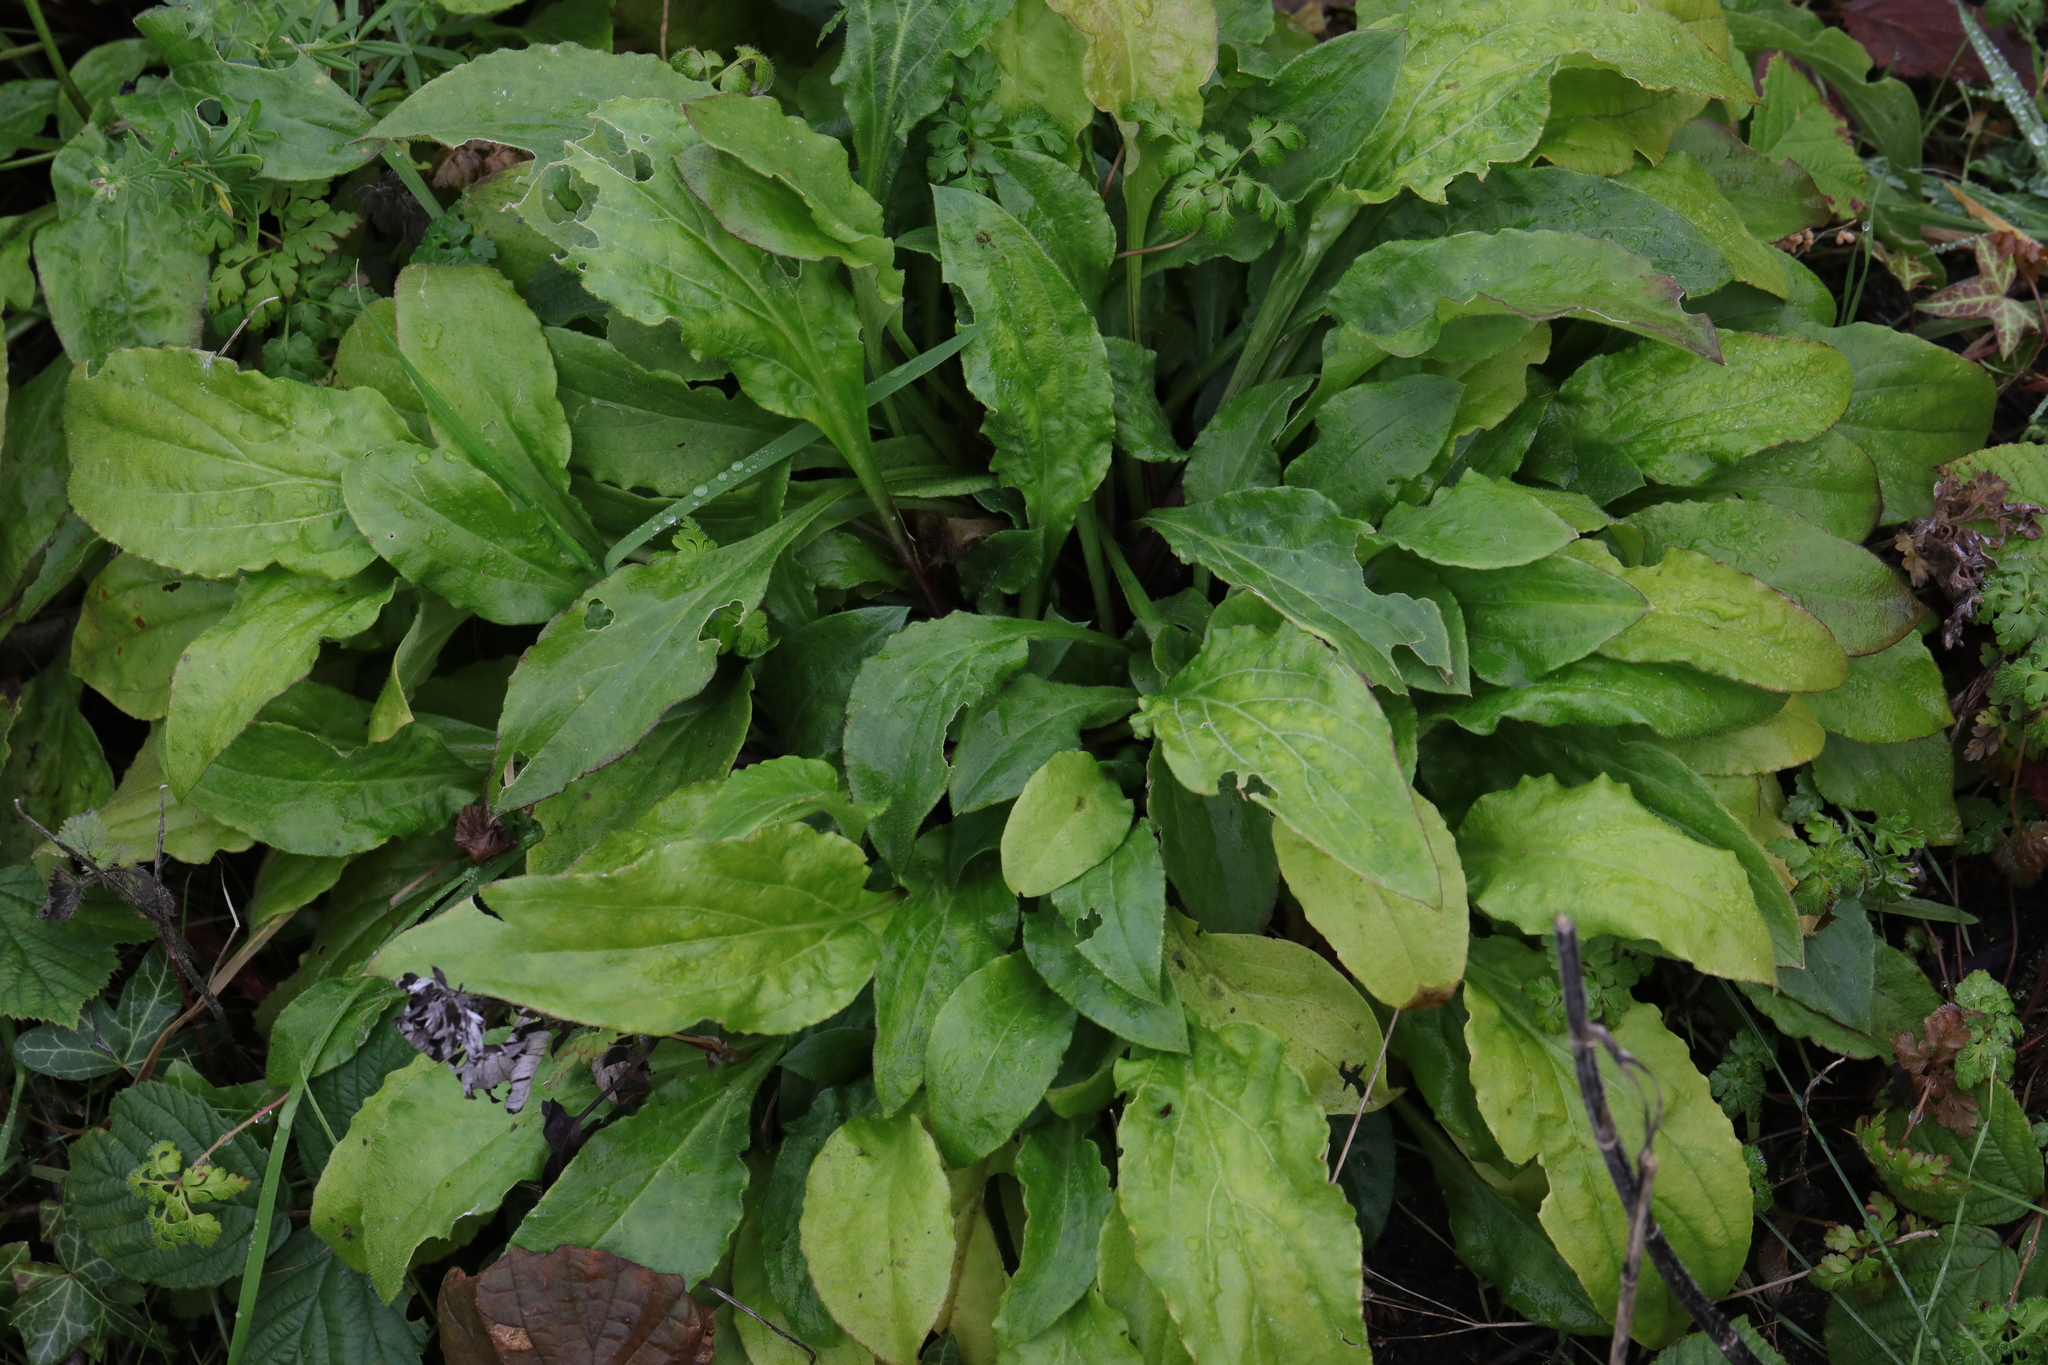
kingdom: Plantae
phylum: Tracheophyta
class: Magnoliopsida
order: Caryophyllales
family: Caryophyllaceae
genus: Silene
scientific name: Silene dioica
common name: Red campion
